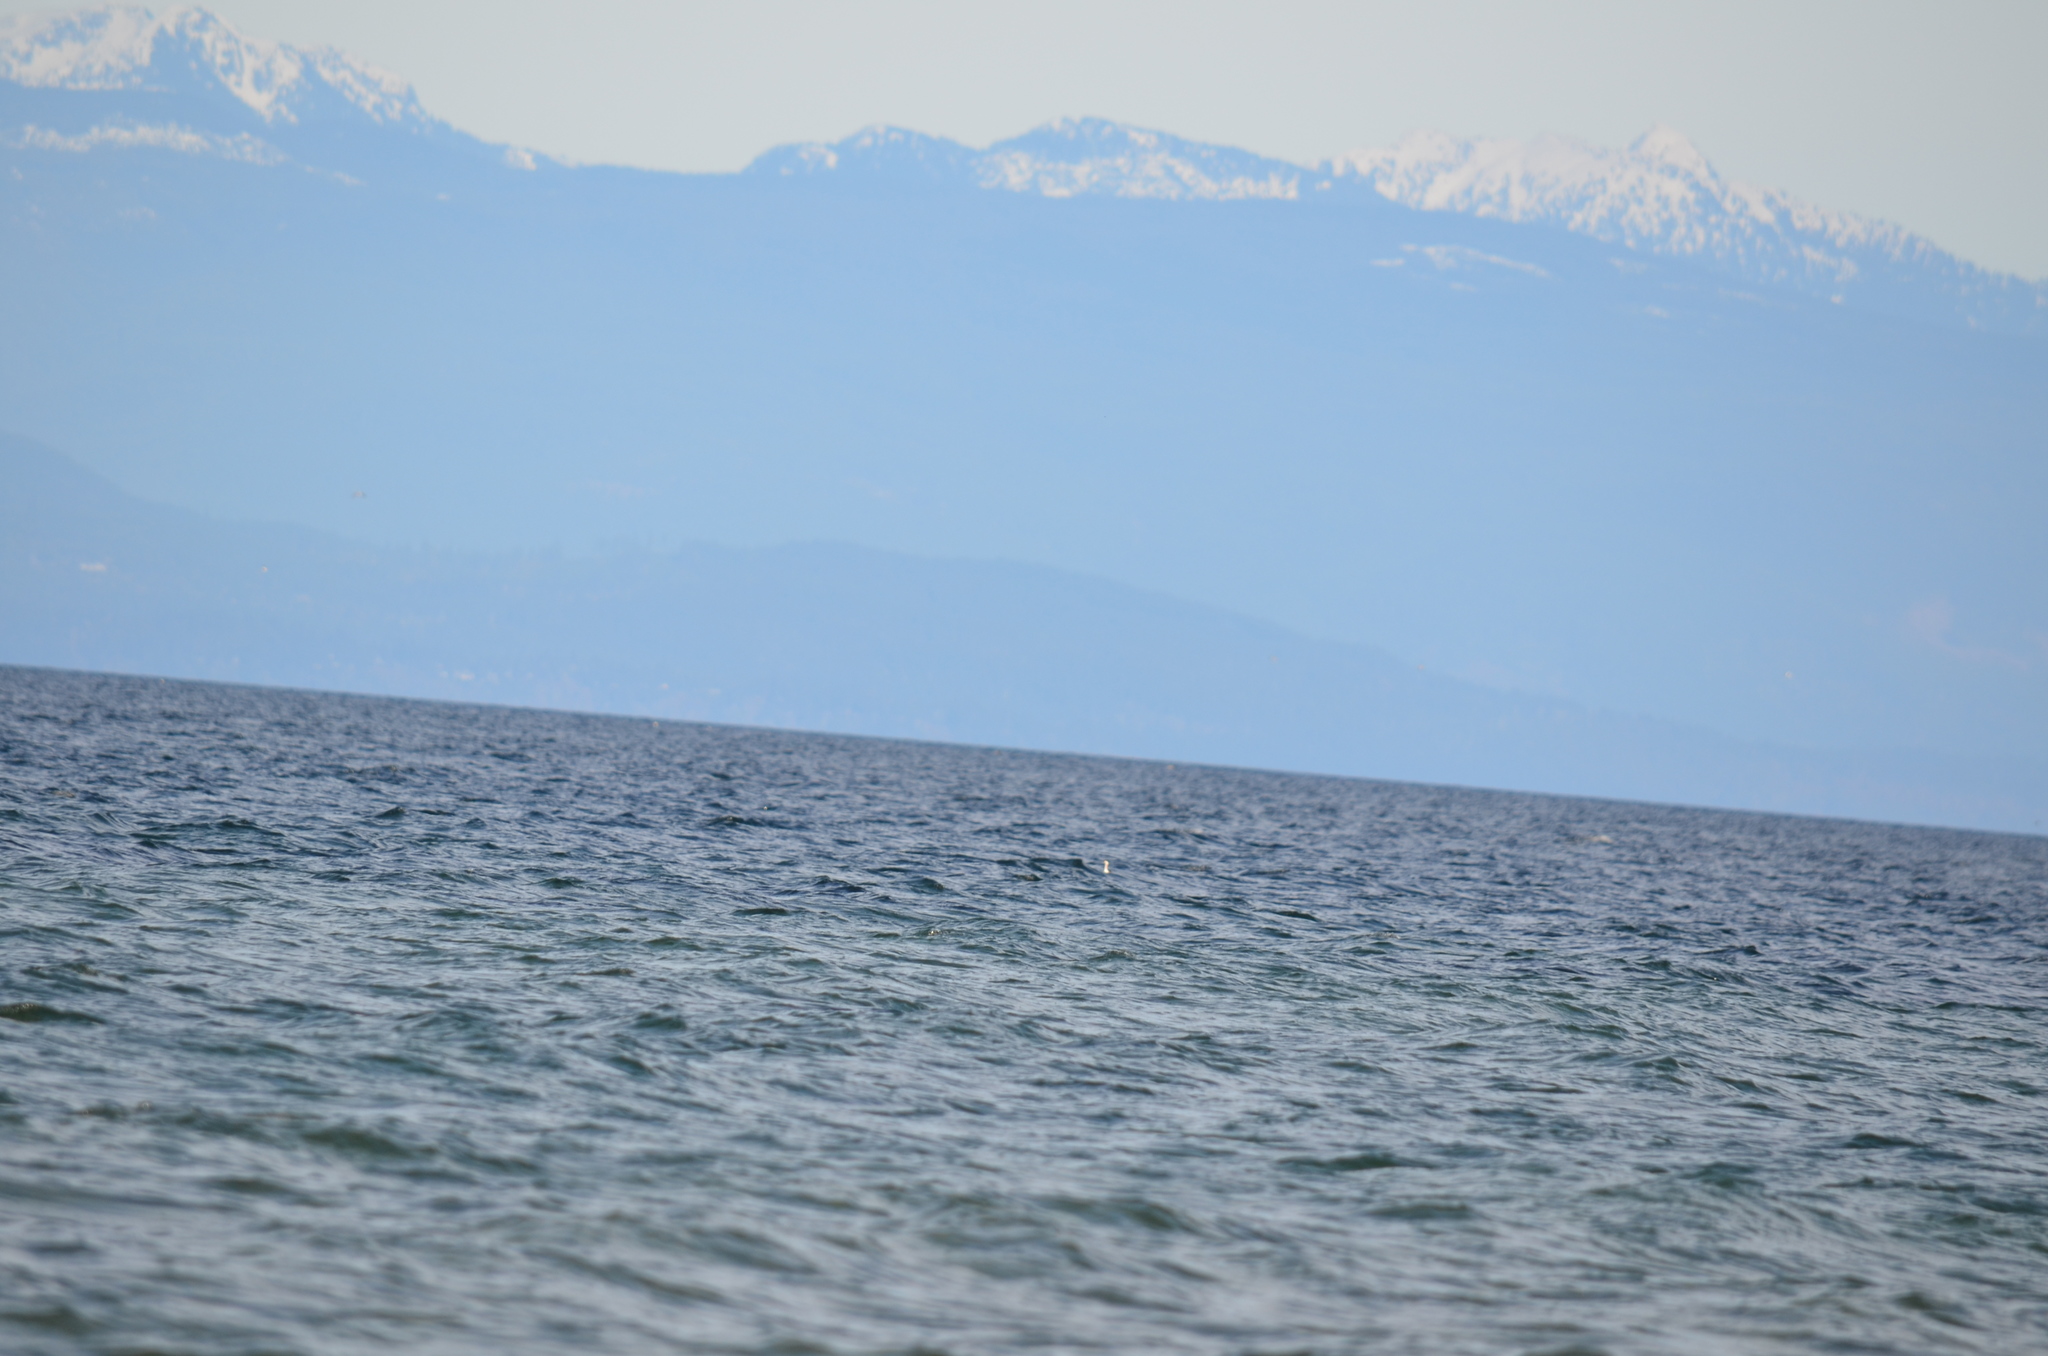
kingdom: Animalia
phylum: Chordata
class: Aves
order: Podicipediformes
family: Podicipedidae
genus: Podiceps
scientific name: Podiceps grisegena
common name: Red-necked grebe
